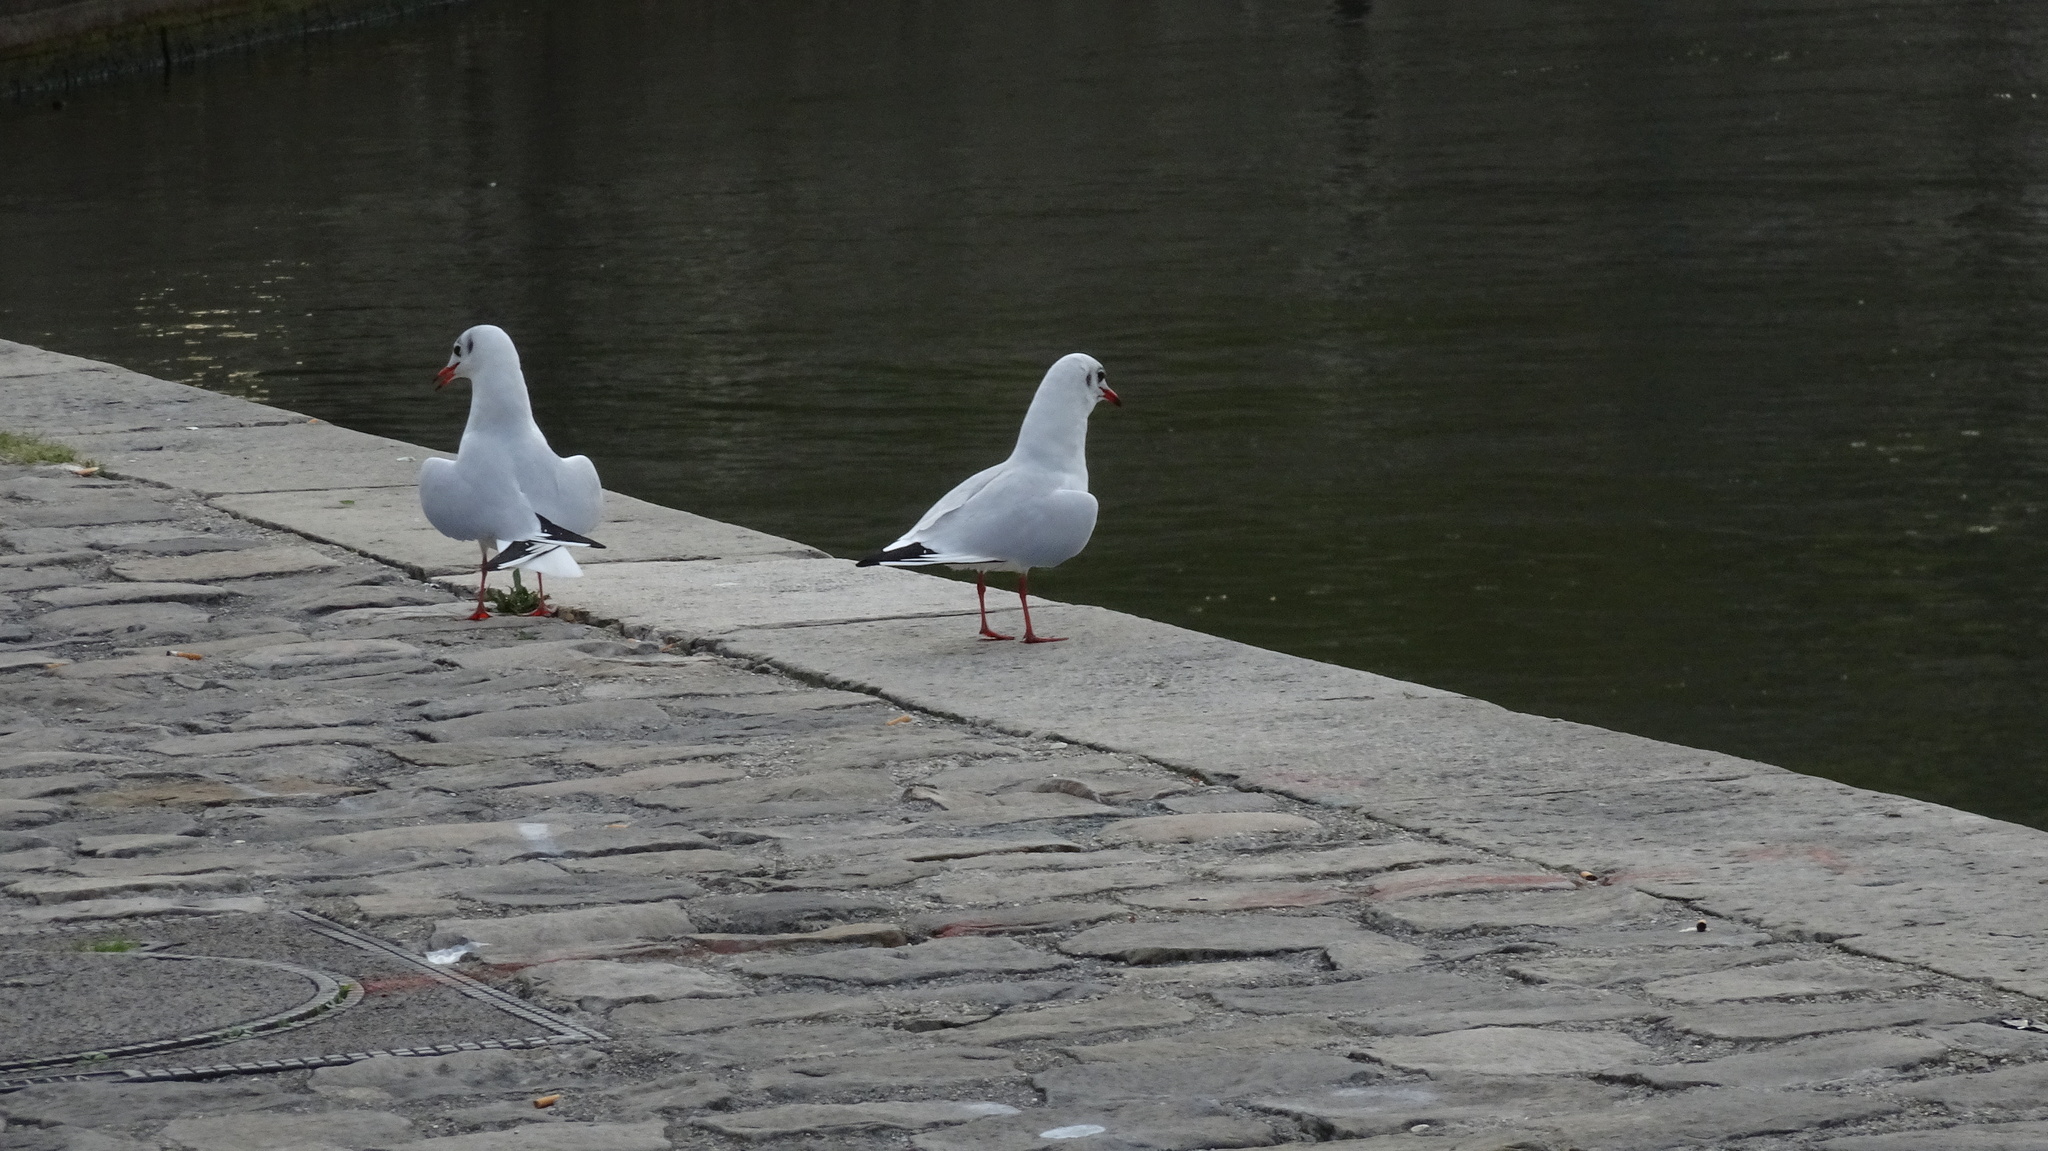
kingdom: Animalia
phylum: Chordata
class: Aves
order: Charadriiformes
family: Laridae
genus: Chroicocephalus
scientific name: Chroicocephalus ridibundus
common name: Black-headed gull
